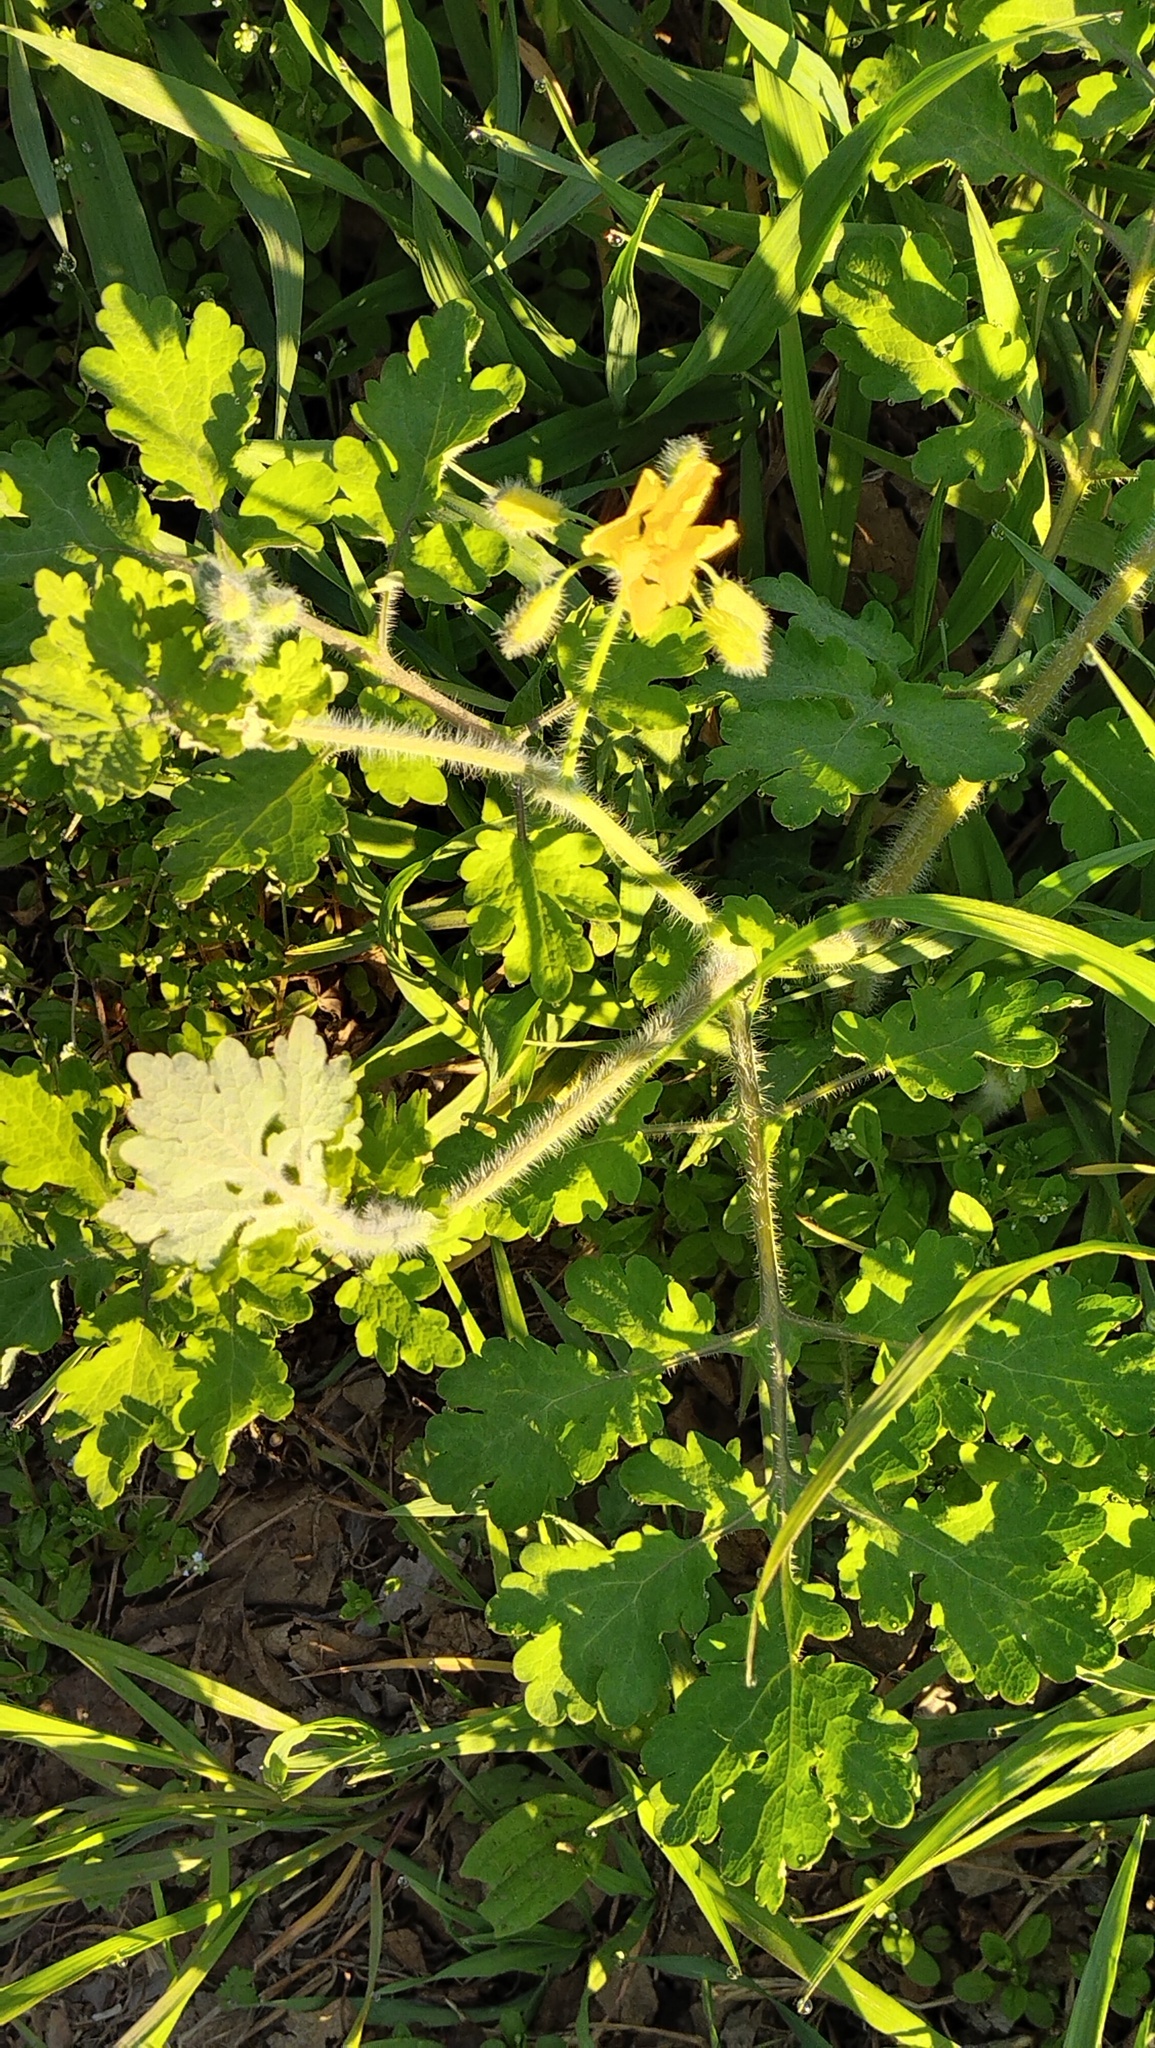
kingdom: Plantae
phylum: Tracheophyta
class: Magnoliopsida
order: Ranunculales
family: Papaveraceae
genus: Chelidonium
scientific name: Chelidonium majus
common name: Greater celandine
